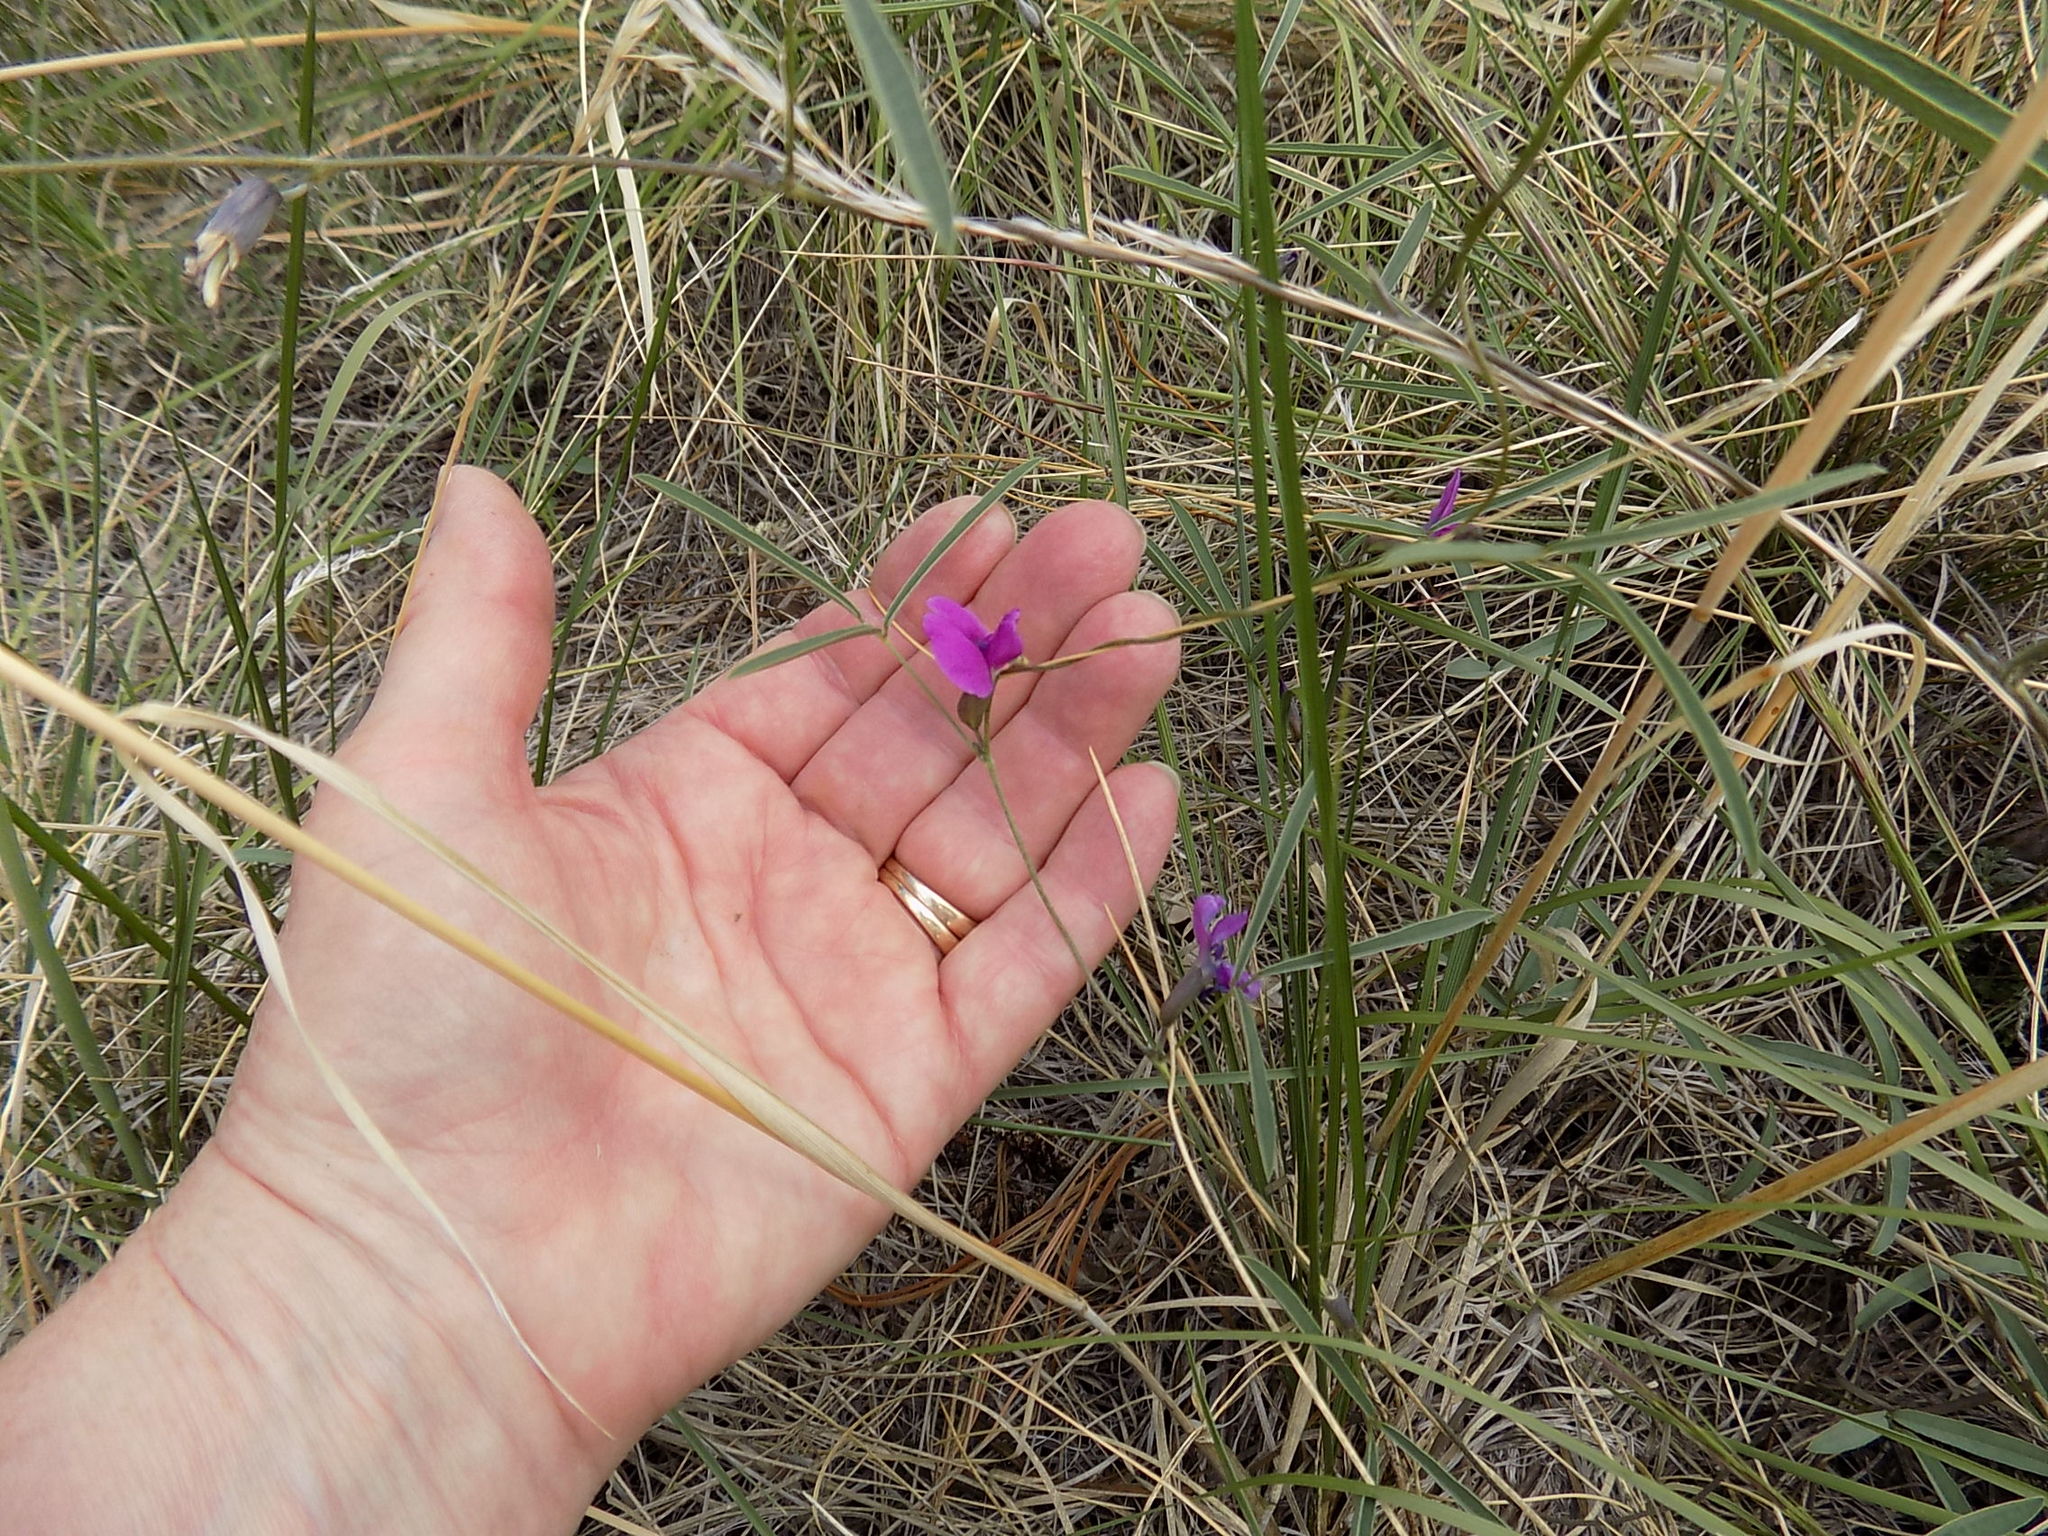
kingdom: Plantae
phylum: Tracheophyta
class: Magnoliopsida
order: Fabales
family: Fabaceae
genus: Cologania
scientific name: Cologania angustifolia
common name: Longleaf cologania
